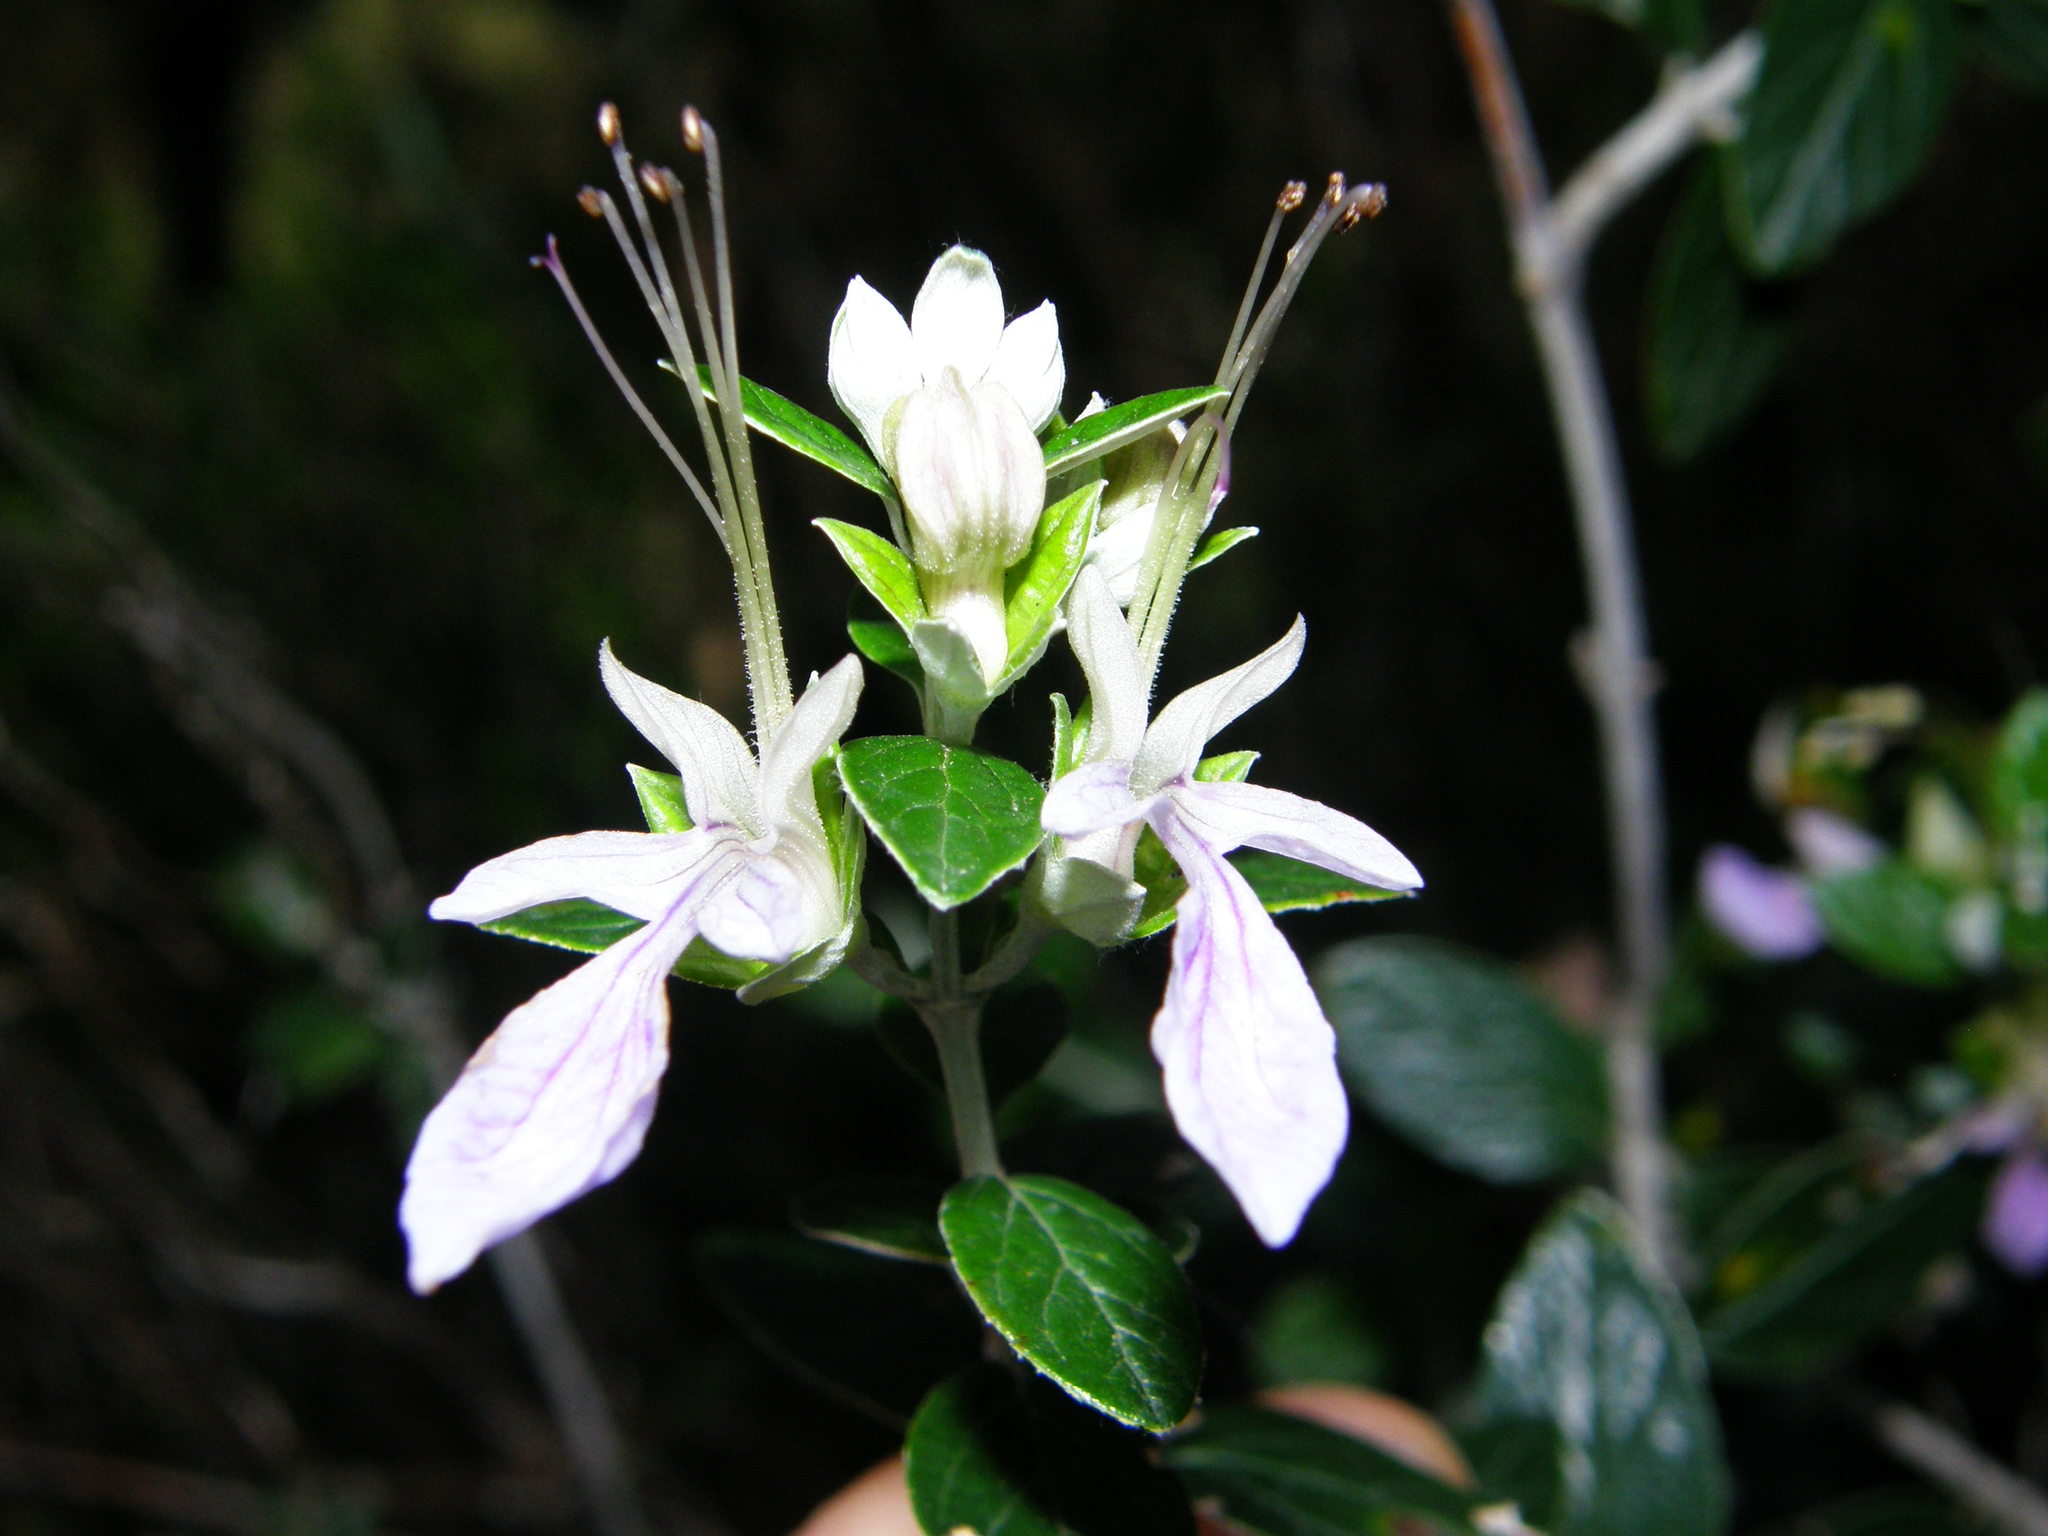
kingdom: Plantae
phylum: Tracheophyta
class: Magnoliopsida
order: Lamiales
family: Lamiaceae
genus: Teucrium
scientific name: Teucrium fruticans
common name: Shrubby germander
